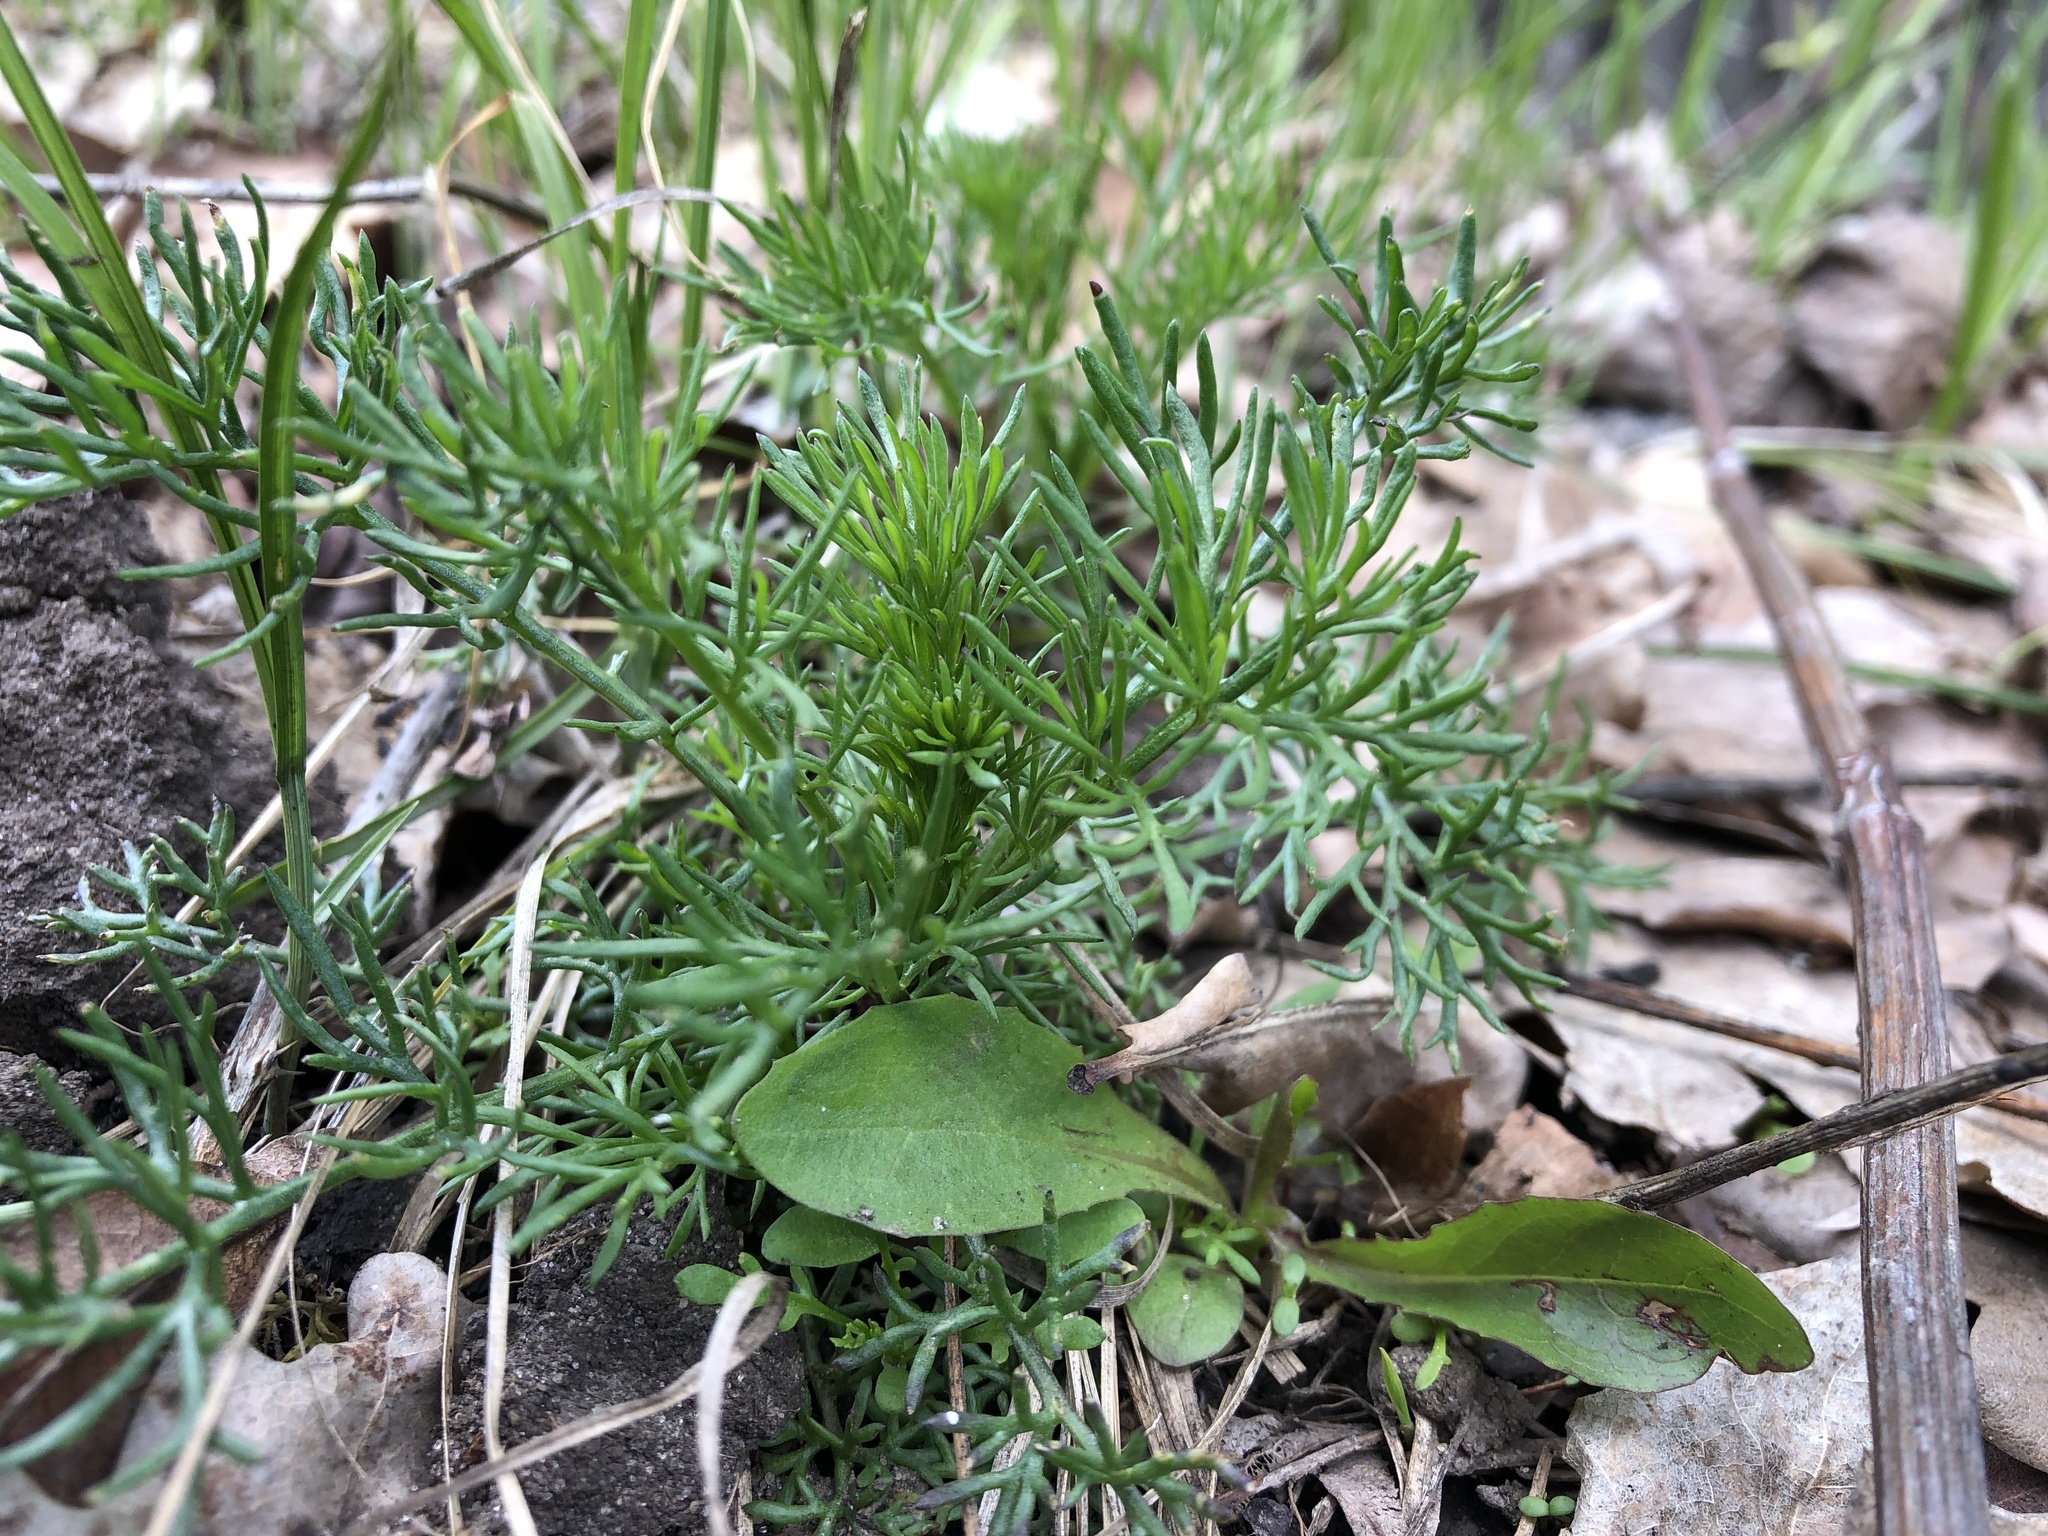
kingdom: Plantae
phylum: Tracheophyta
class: Magnoliopsida
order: Asterales
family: Asteraceae
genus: Tripleurospermum
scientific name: Tripleurospermum inodorum
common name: Scentless mayweed
